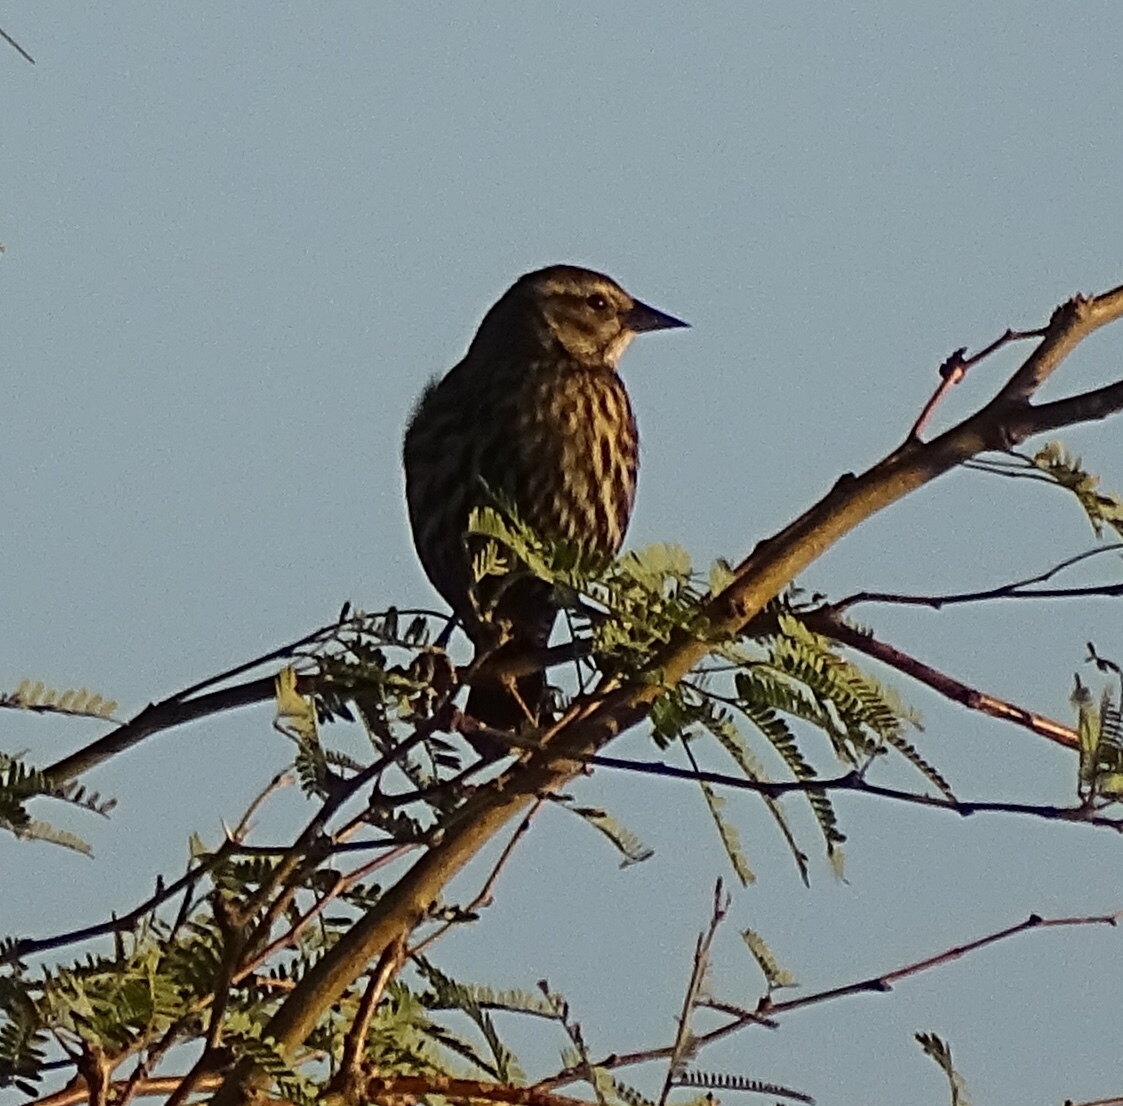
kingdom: Animalia
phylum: Chordata
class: Aves
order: Passeriformes
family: Icteridae
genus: Agelaius
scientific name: Agelaius phoeniceus
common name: Red-winged blackbird
